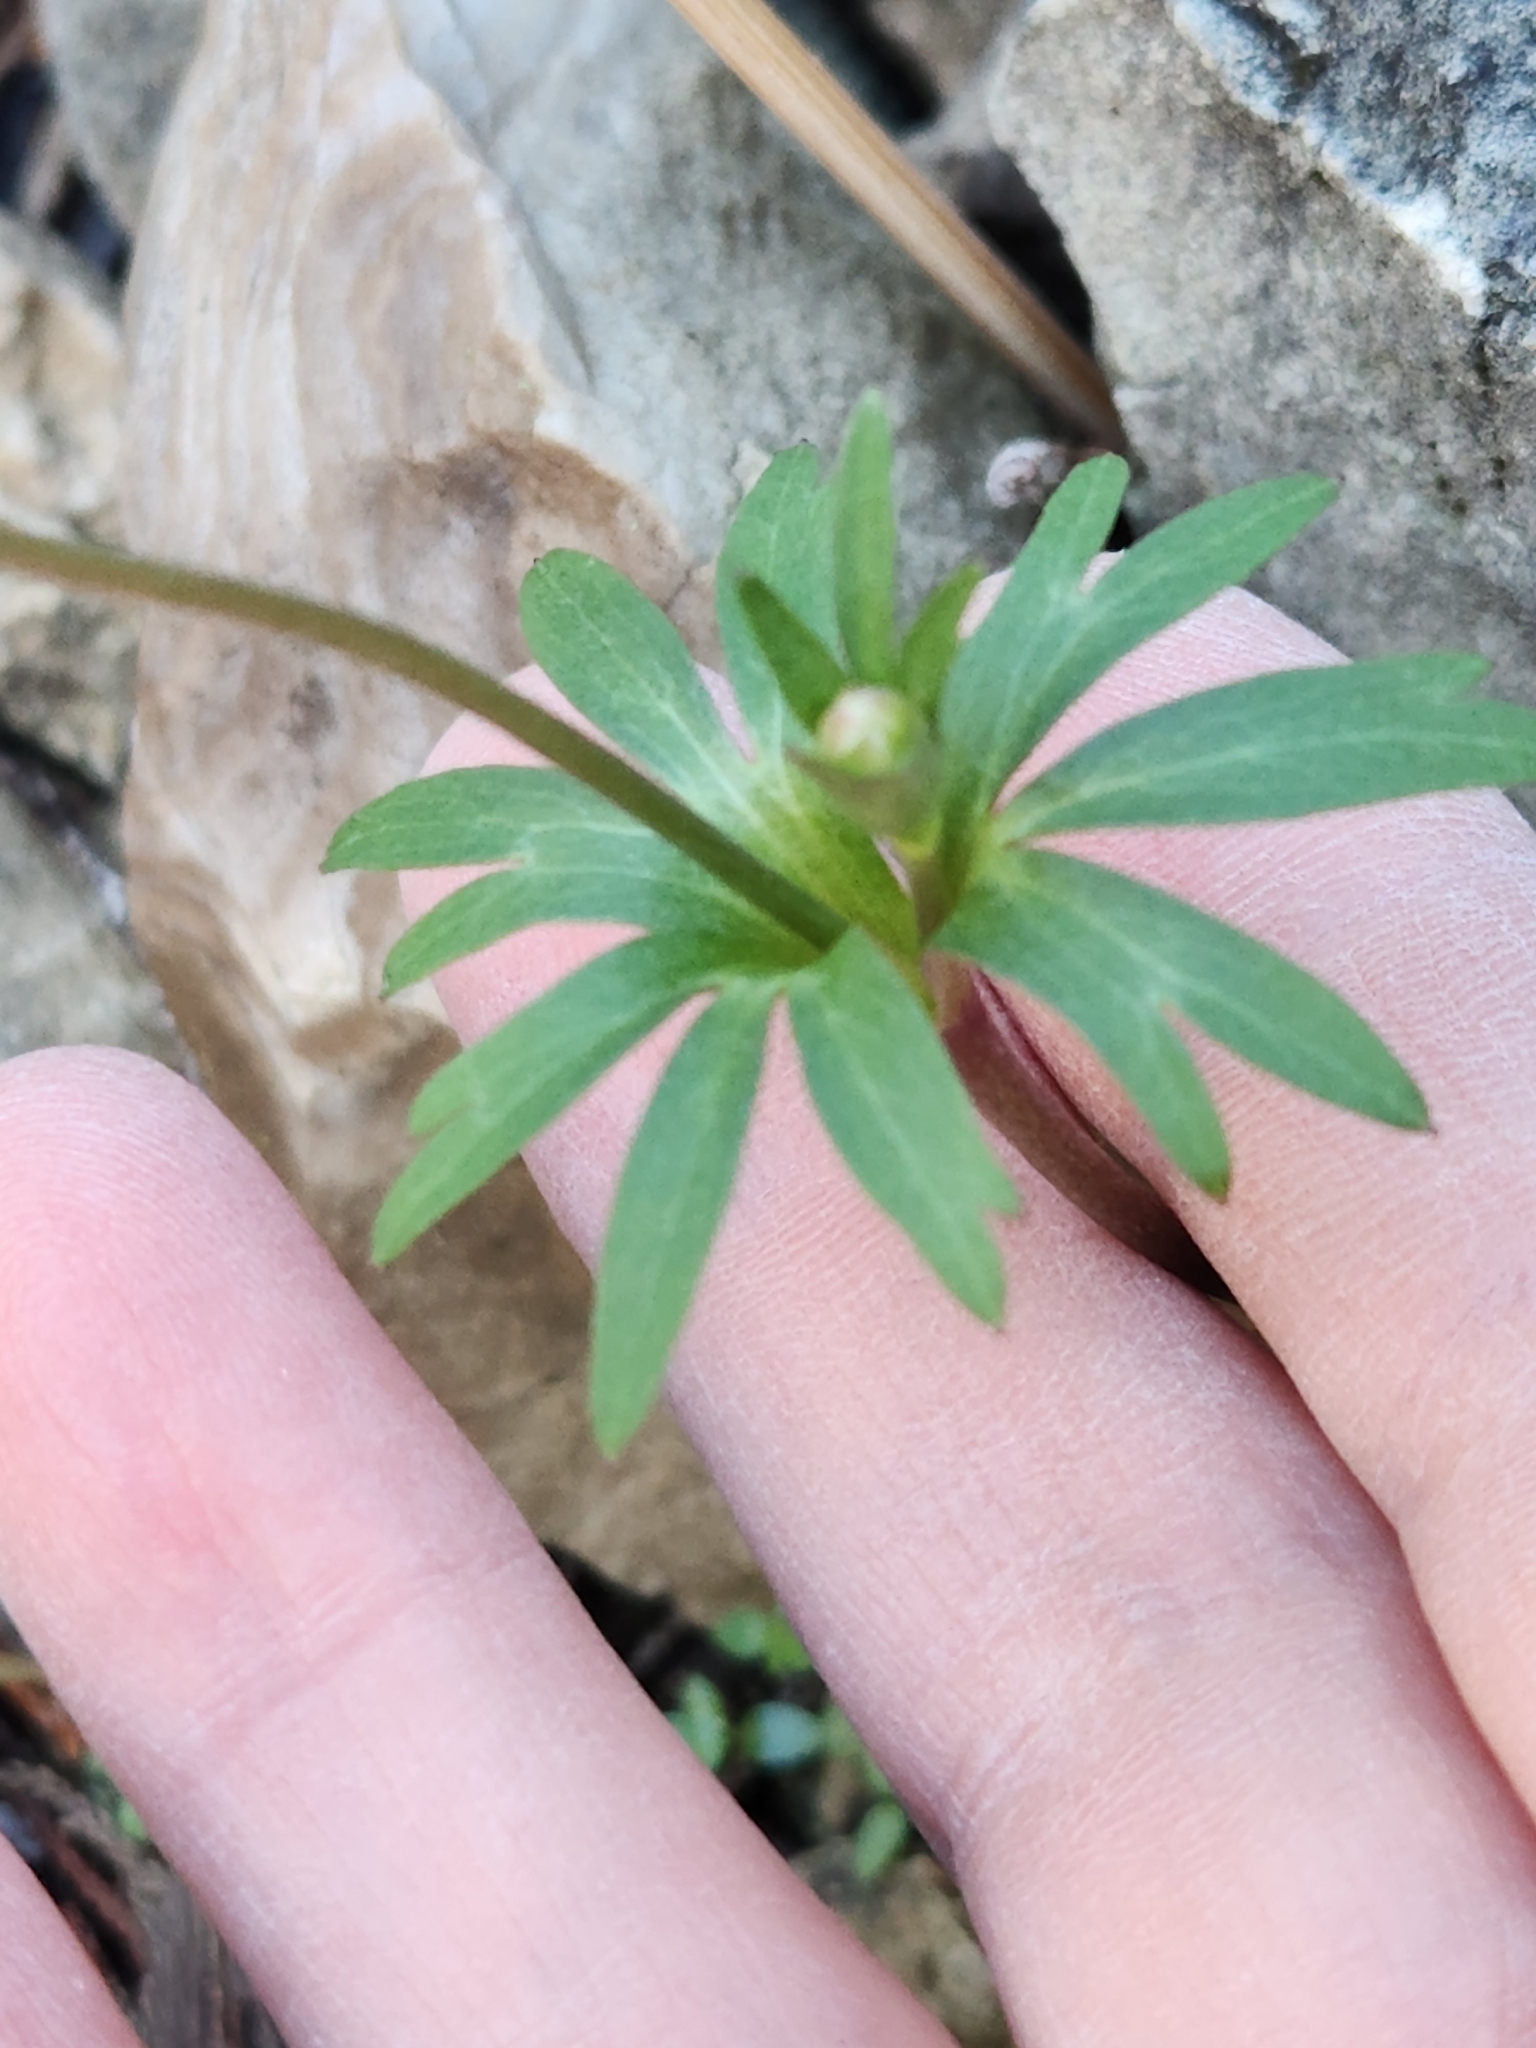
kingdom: Plantae
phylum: Tracheophyta
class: Magnoliopsida
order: Ranunculales
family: Ranunculaceae
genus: Anemone
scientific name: Anemone edwardsiana
